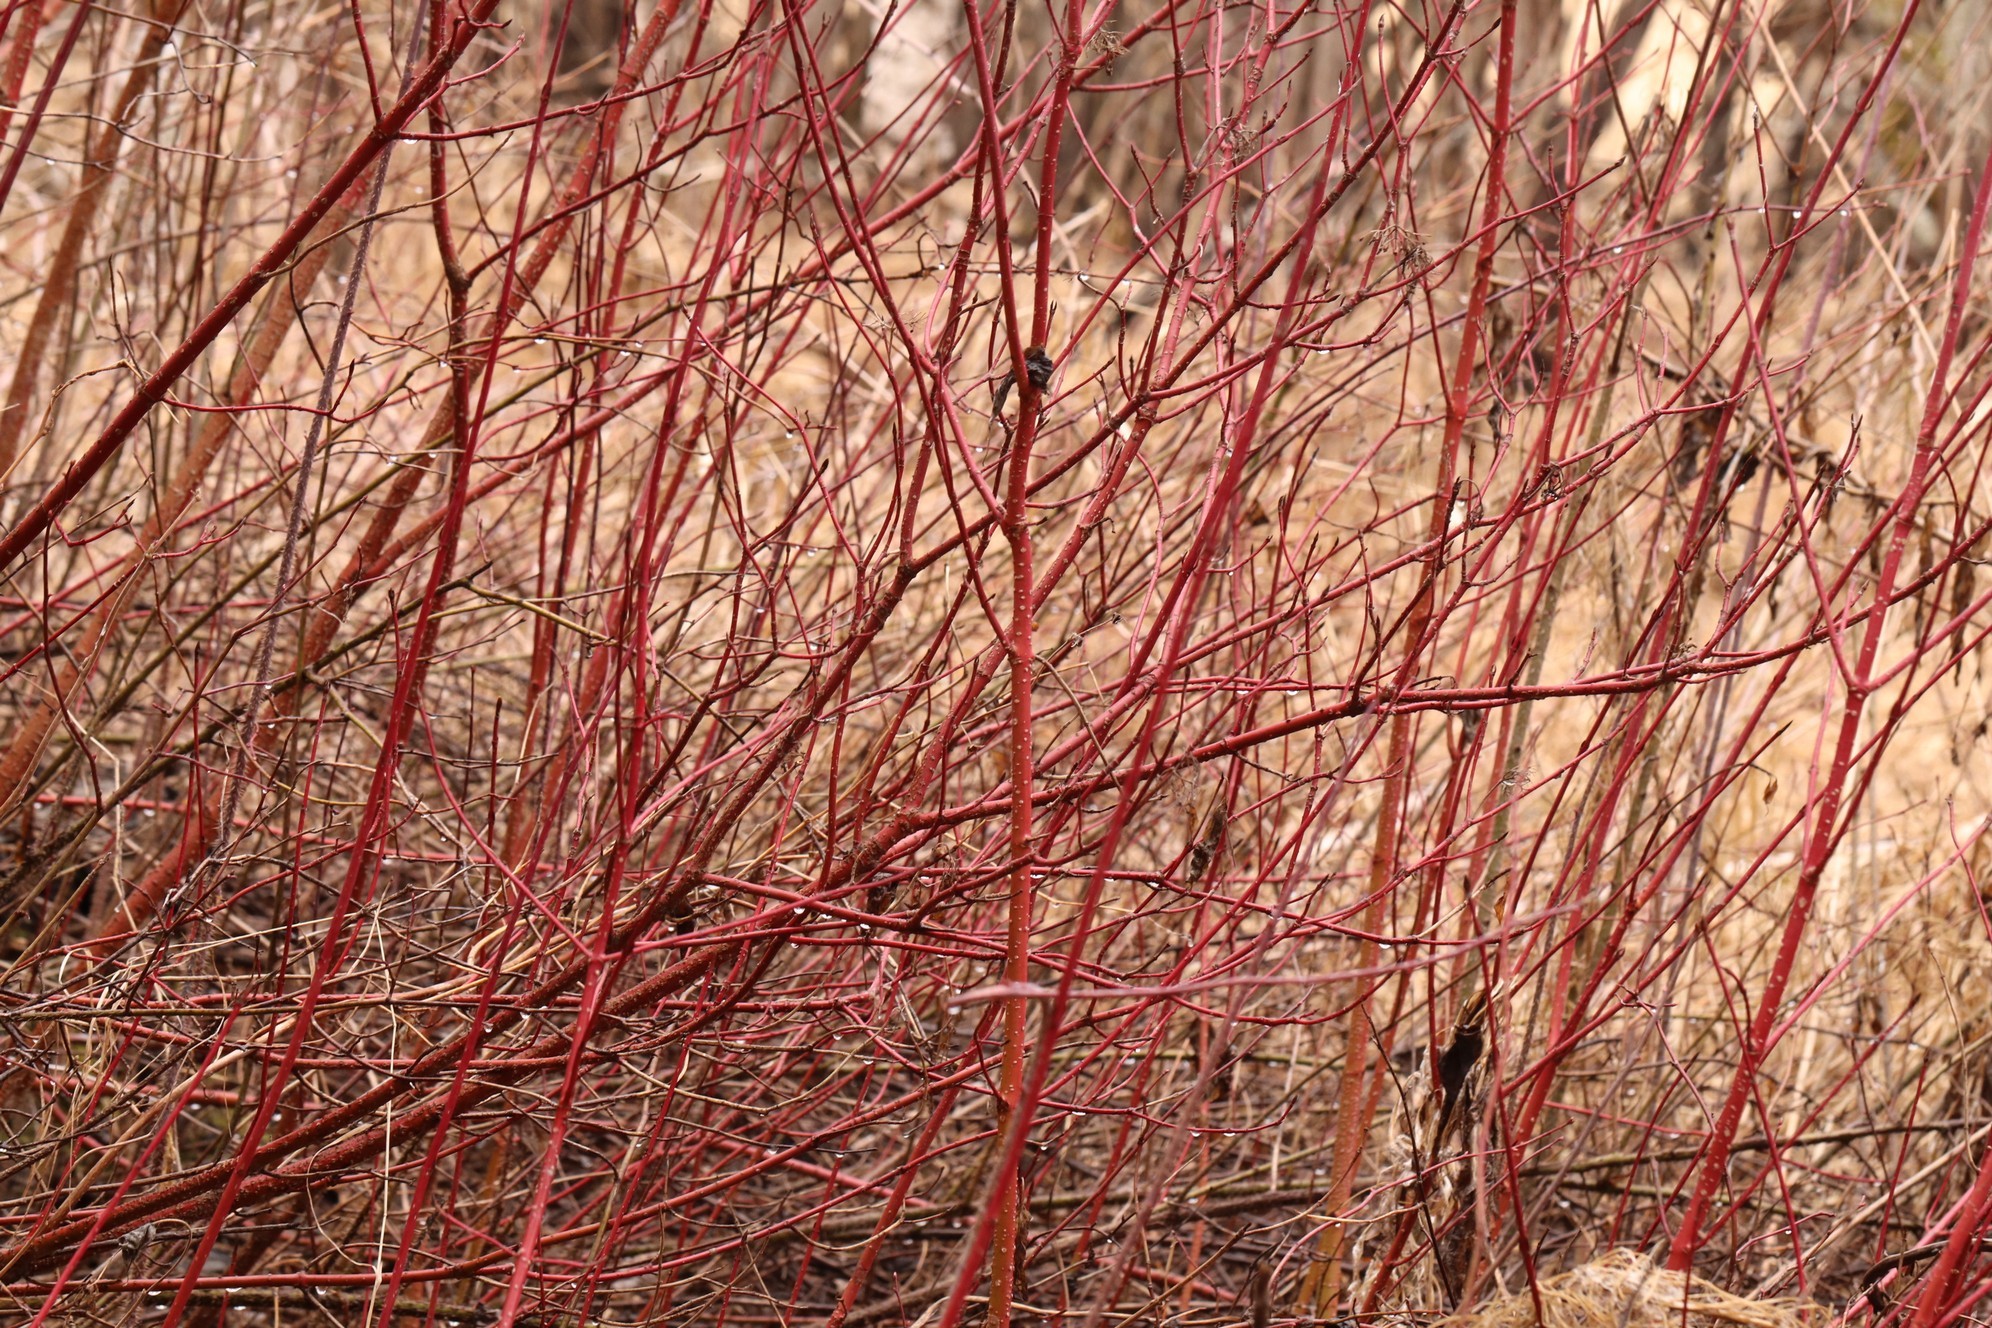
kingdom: Plantae
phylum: Tracheophyta
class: Magnoliopsida
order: Cornales
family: Cornaceae
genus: Cornus
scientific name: Cornus alba
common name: White dogwood
